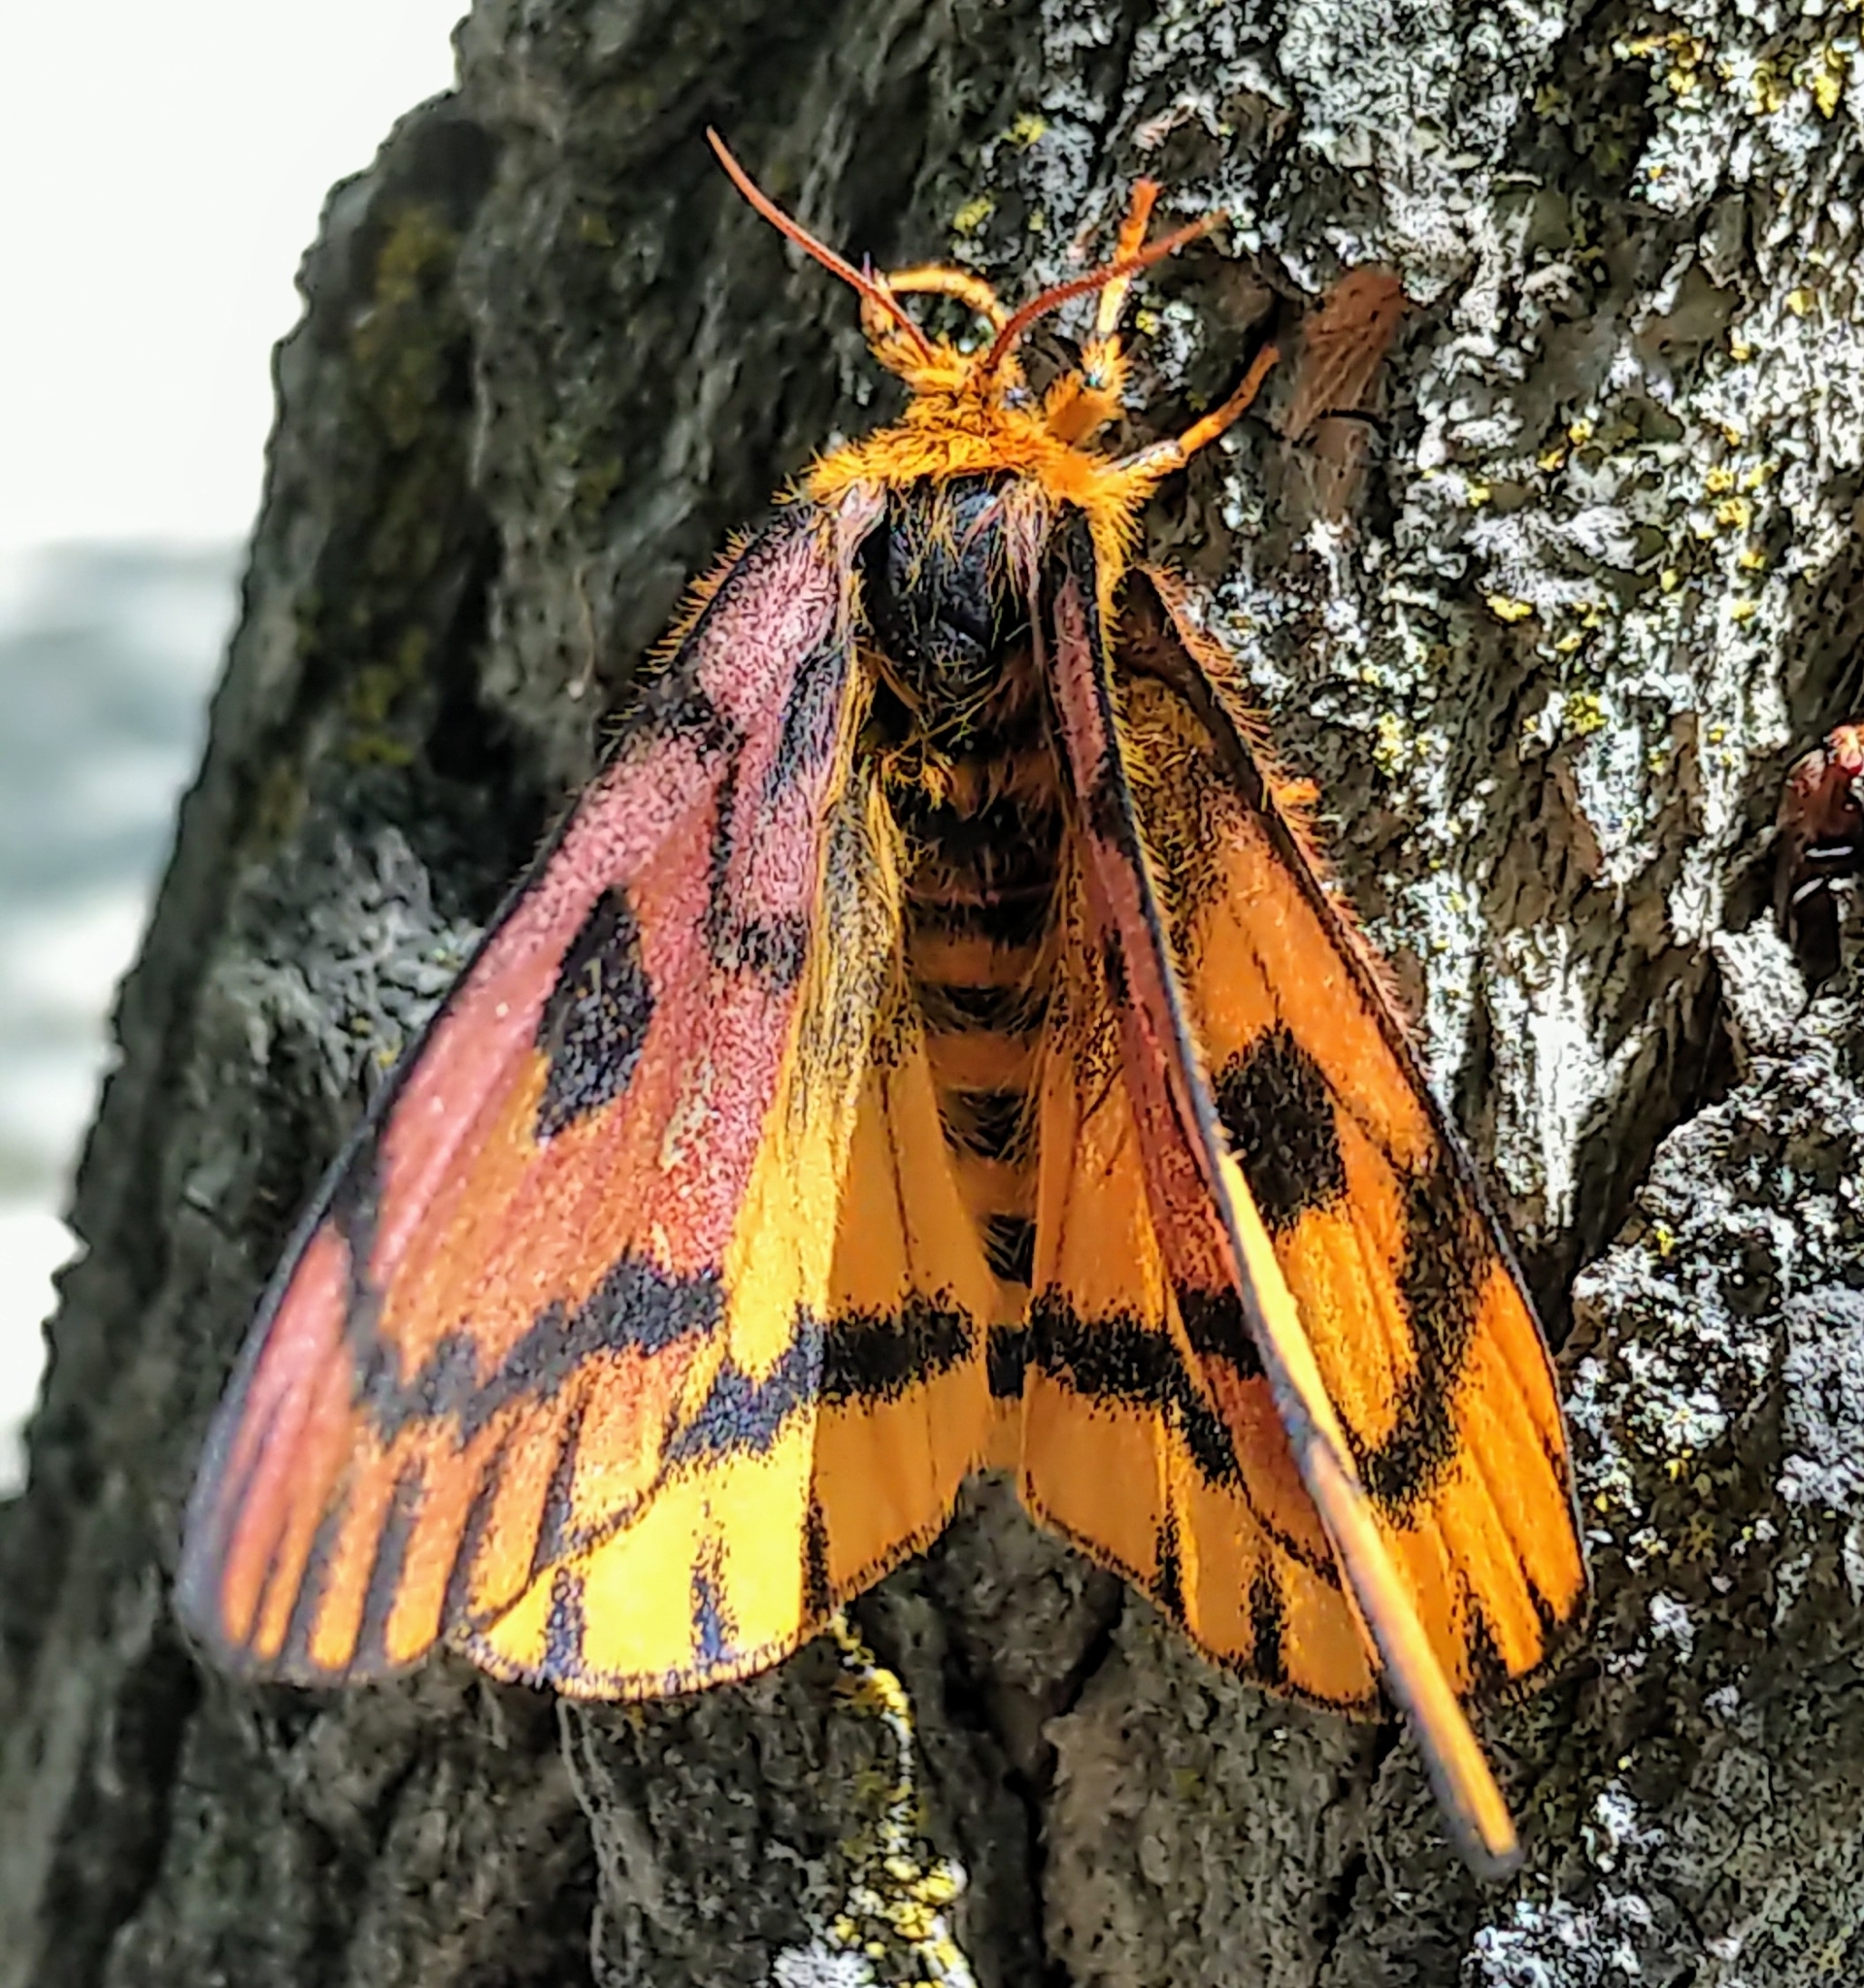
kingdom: Animalia
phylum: Arthropoda
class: Insecta
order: Lepidoptera
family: Saturniidae
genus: Hemileuca
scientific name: Hemileuca eglanterina
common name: Western sheepmoth
